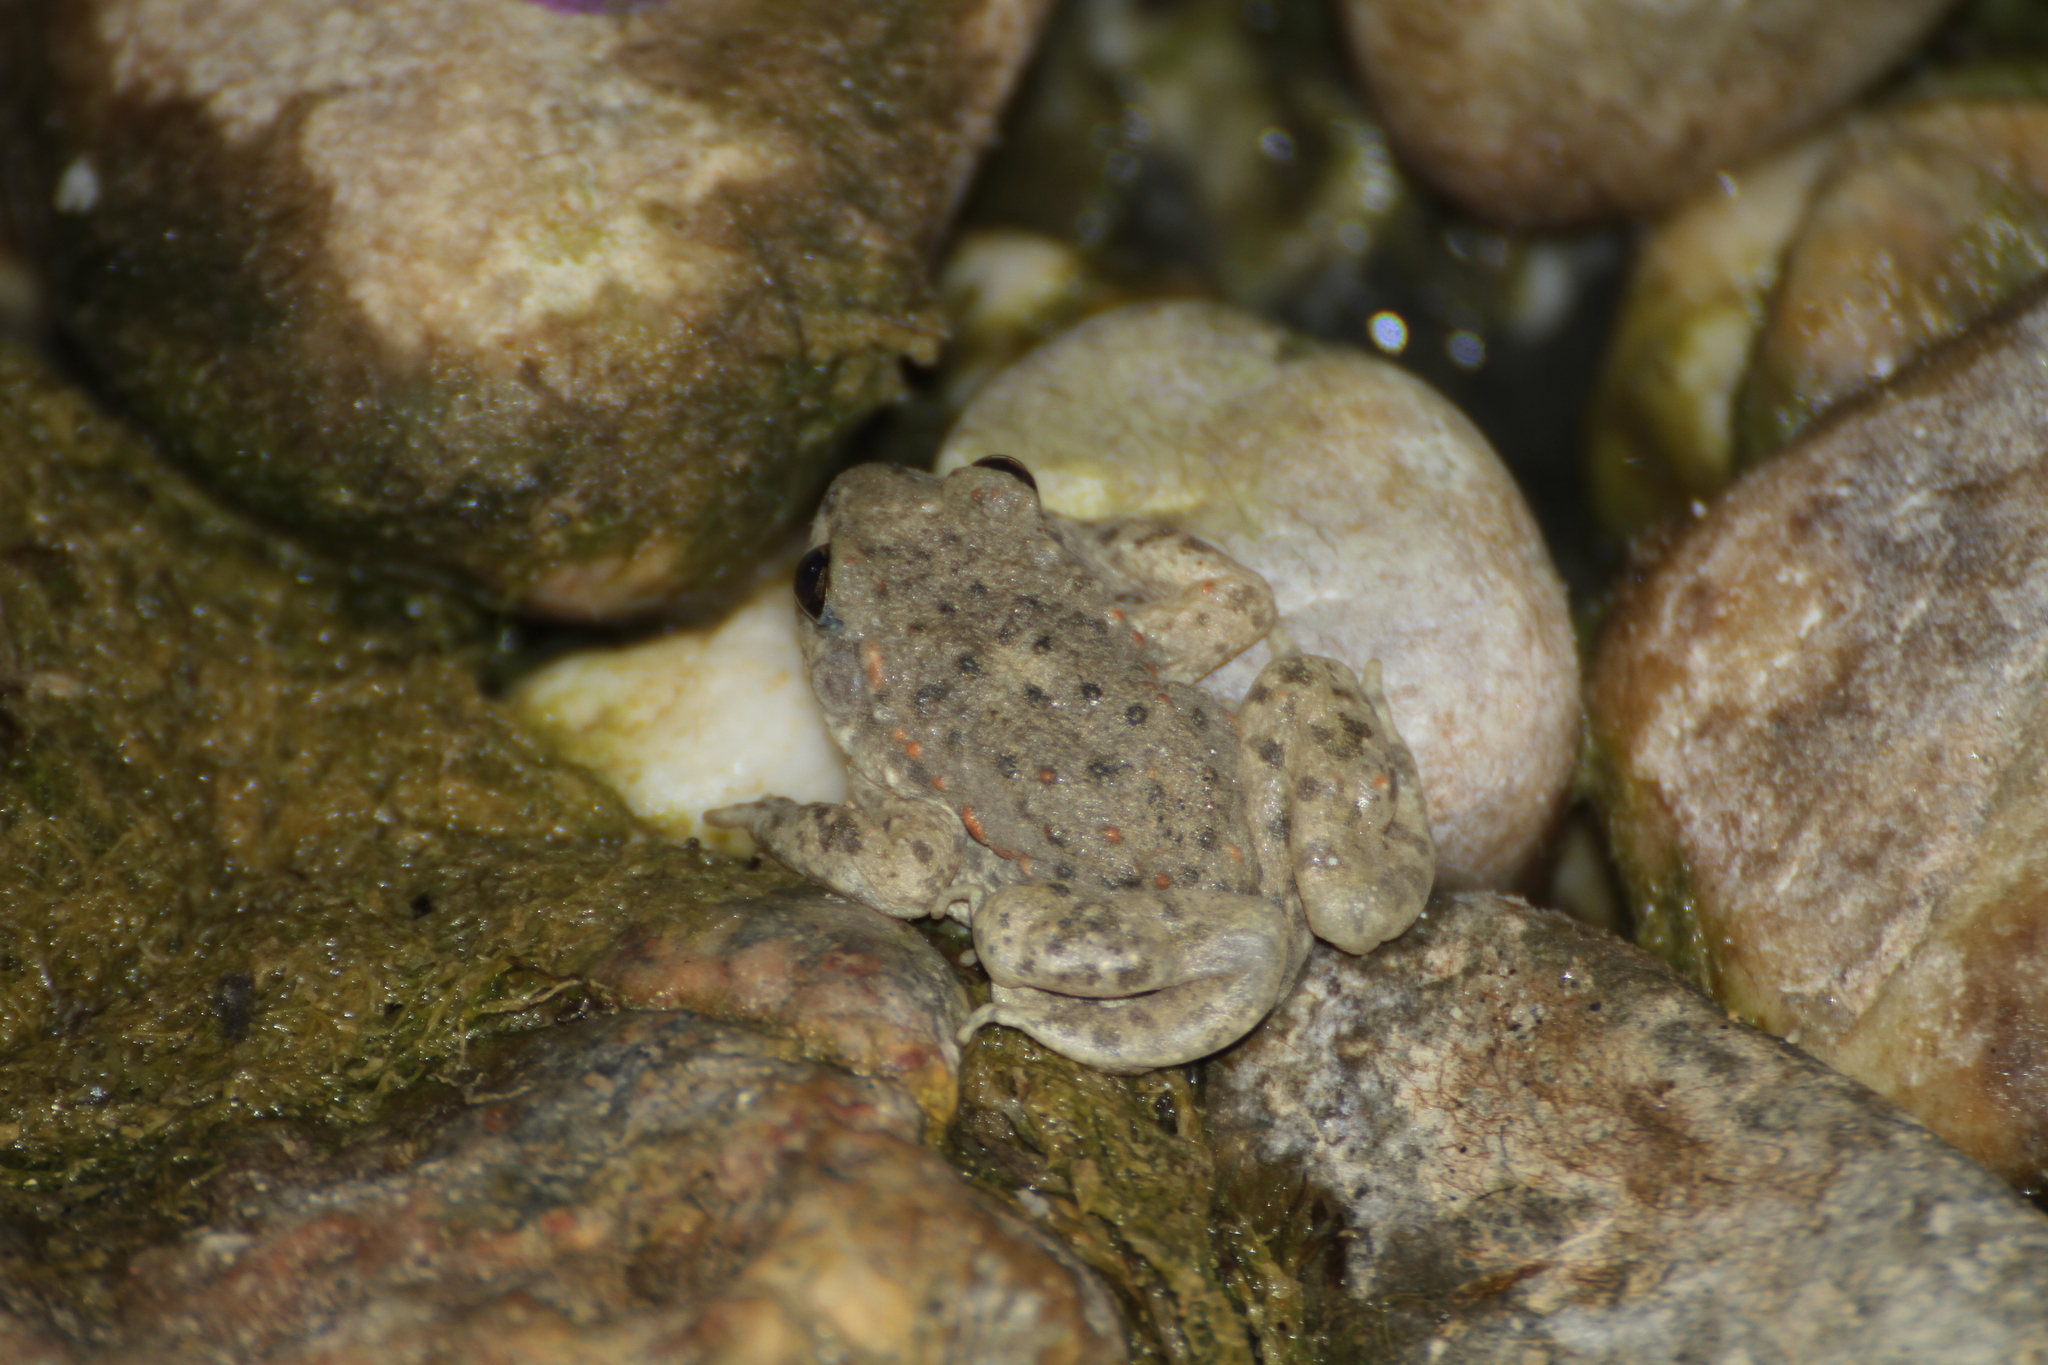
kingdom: Animalia
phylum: Chordata
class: Amphibia
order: Anura
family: Alytidae
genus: Alytes
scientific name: Alytes obstetricans
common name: Midwife toad
